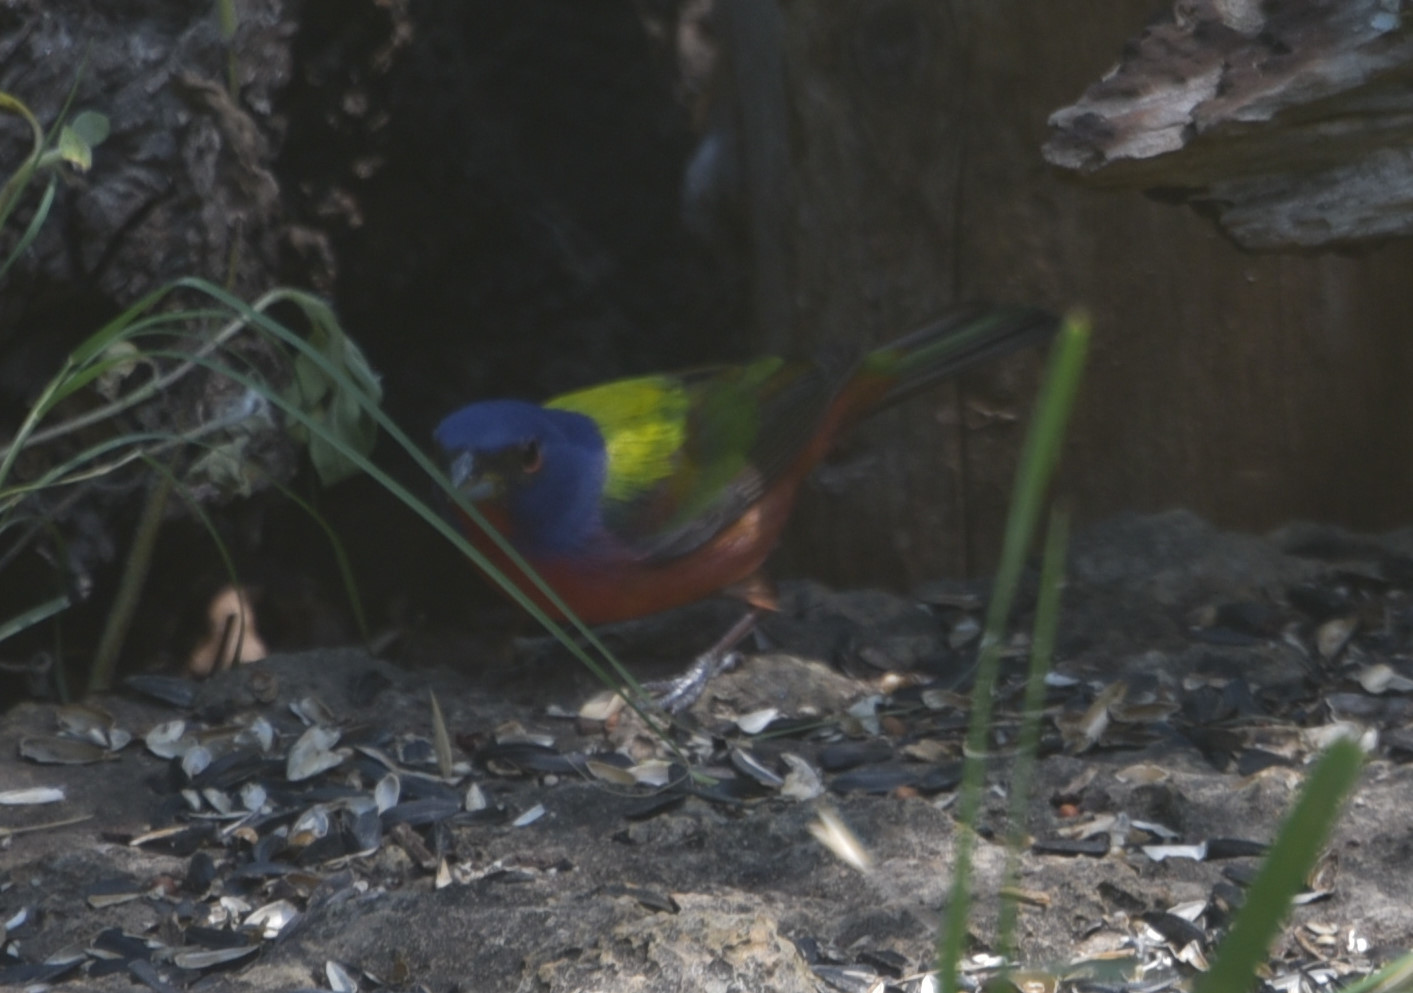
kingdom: Animalia
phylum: Chordata
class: Aves
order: Passeriformes
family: Cardinalidae
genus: Passerina
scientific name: Passerina ciris
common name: Painted bunting
